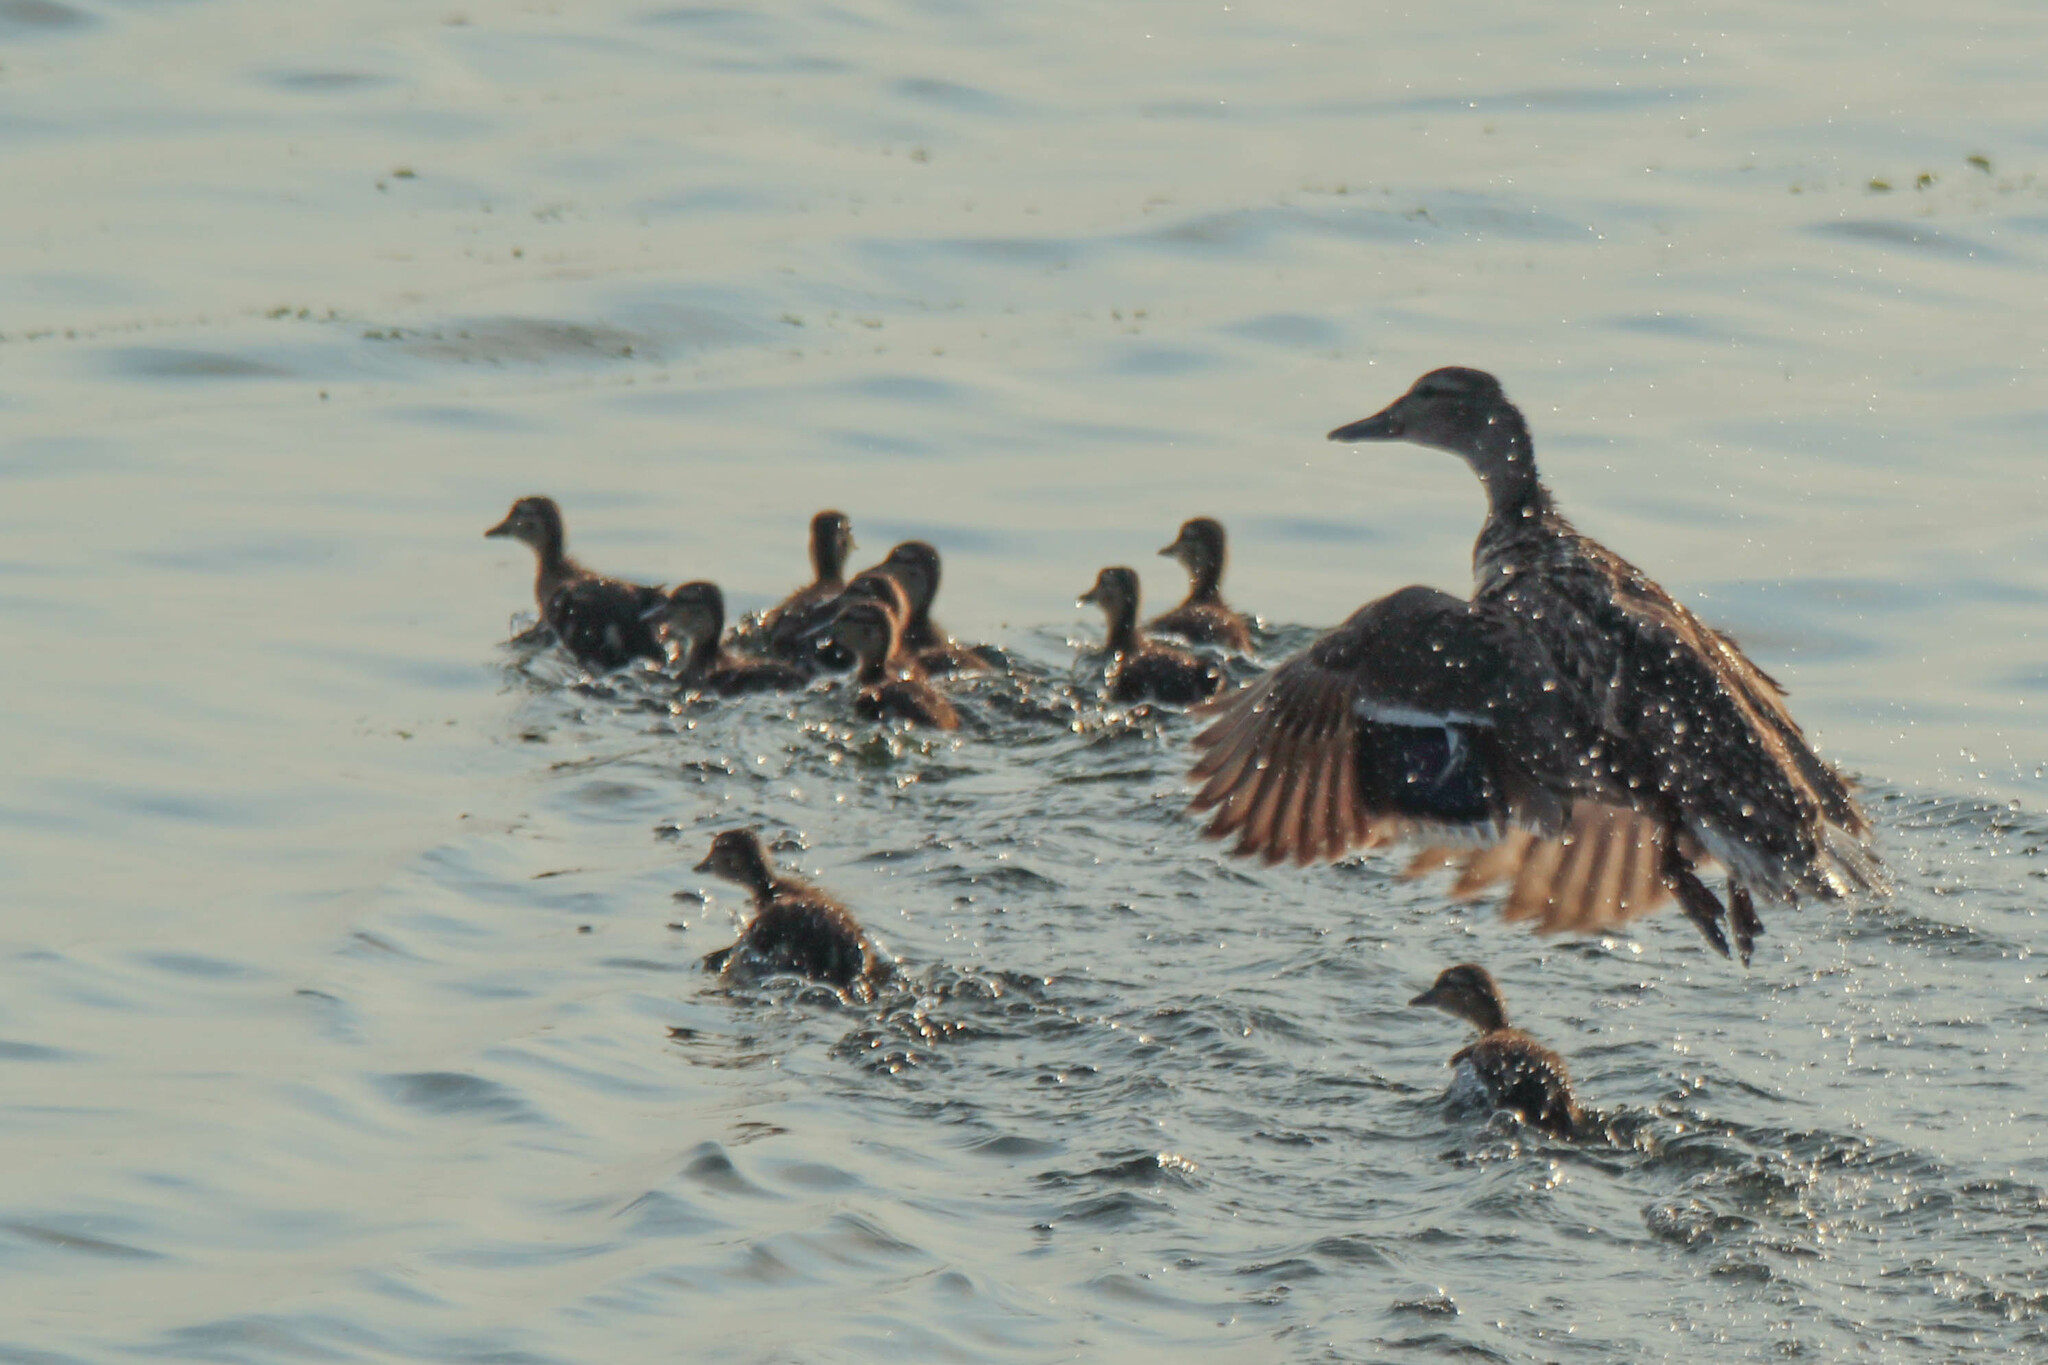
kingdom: Animalia
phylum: Chordata
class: Aves
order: Anseriformes
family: Anatidae
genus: Anas
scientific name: Anas platyrhynchos
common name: Mallard
